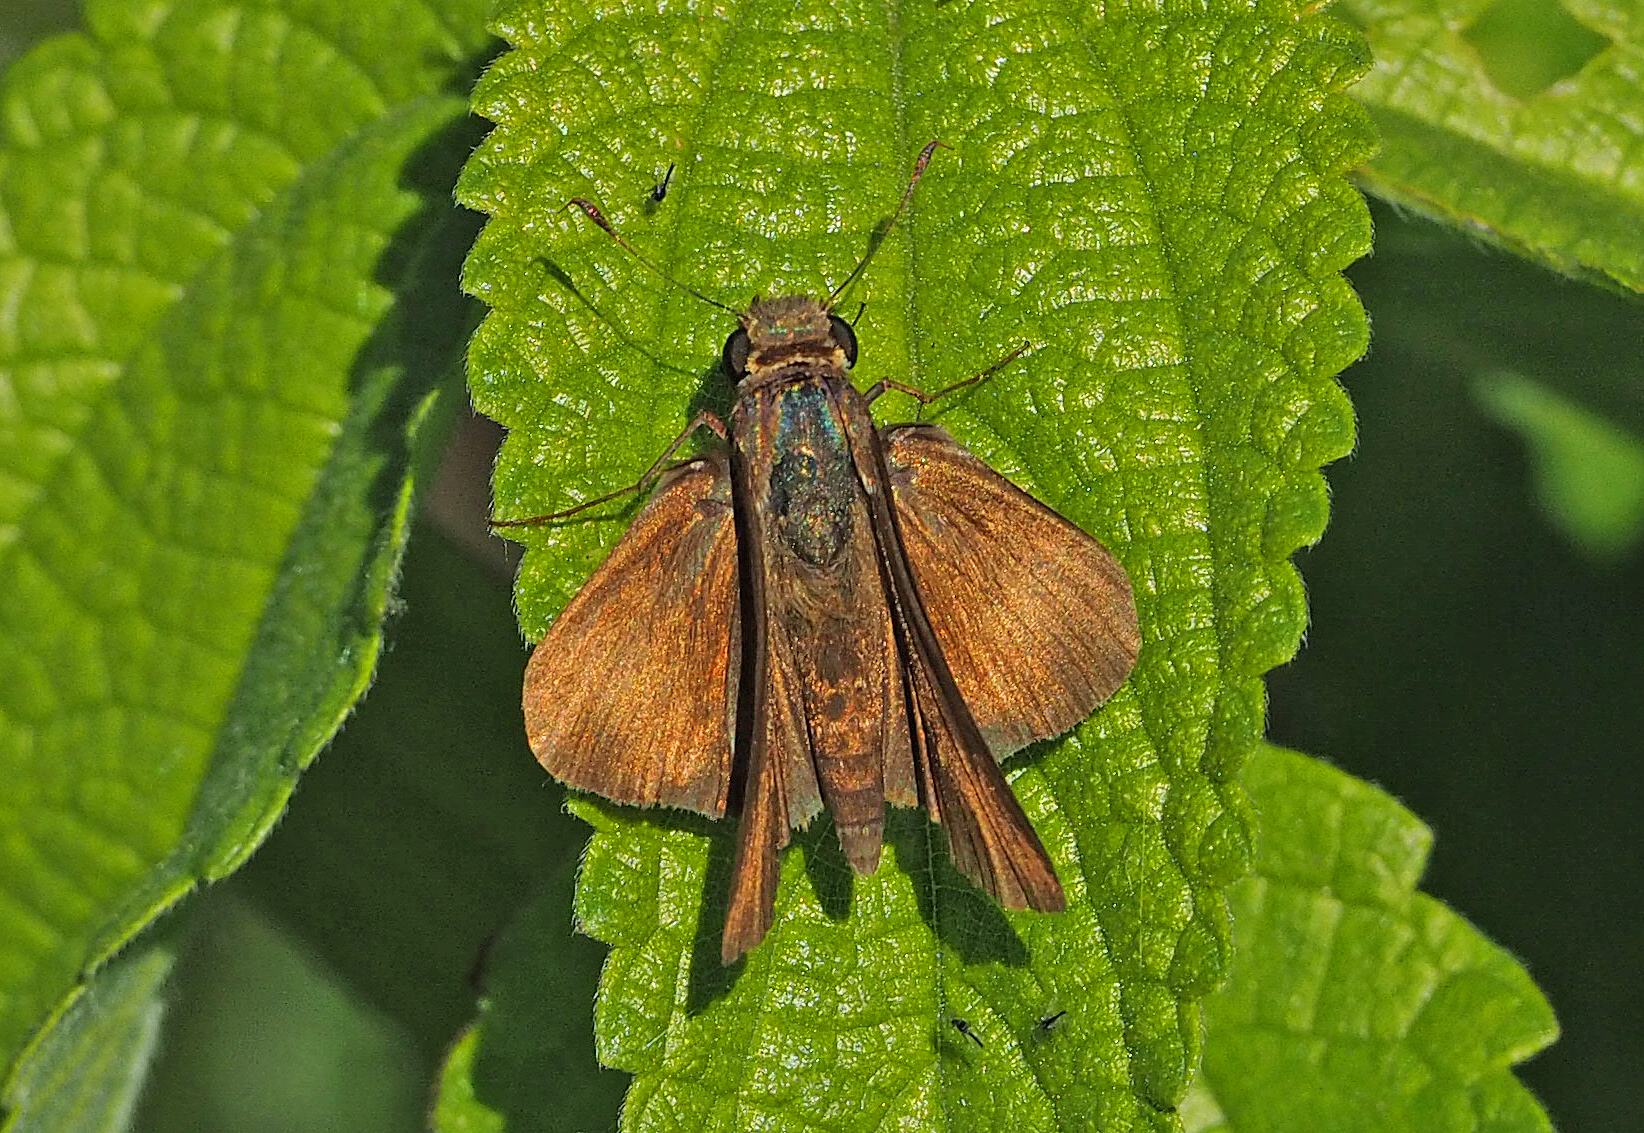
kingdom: Animalia
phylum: Arthropoda
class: Insecta
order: Lepidoptera
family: Hesperiidae
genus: Panoquina
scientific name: Panoquina ocola
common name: Ocola skipper
